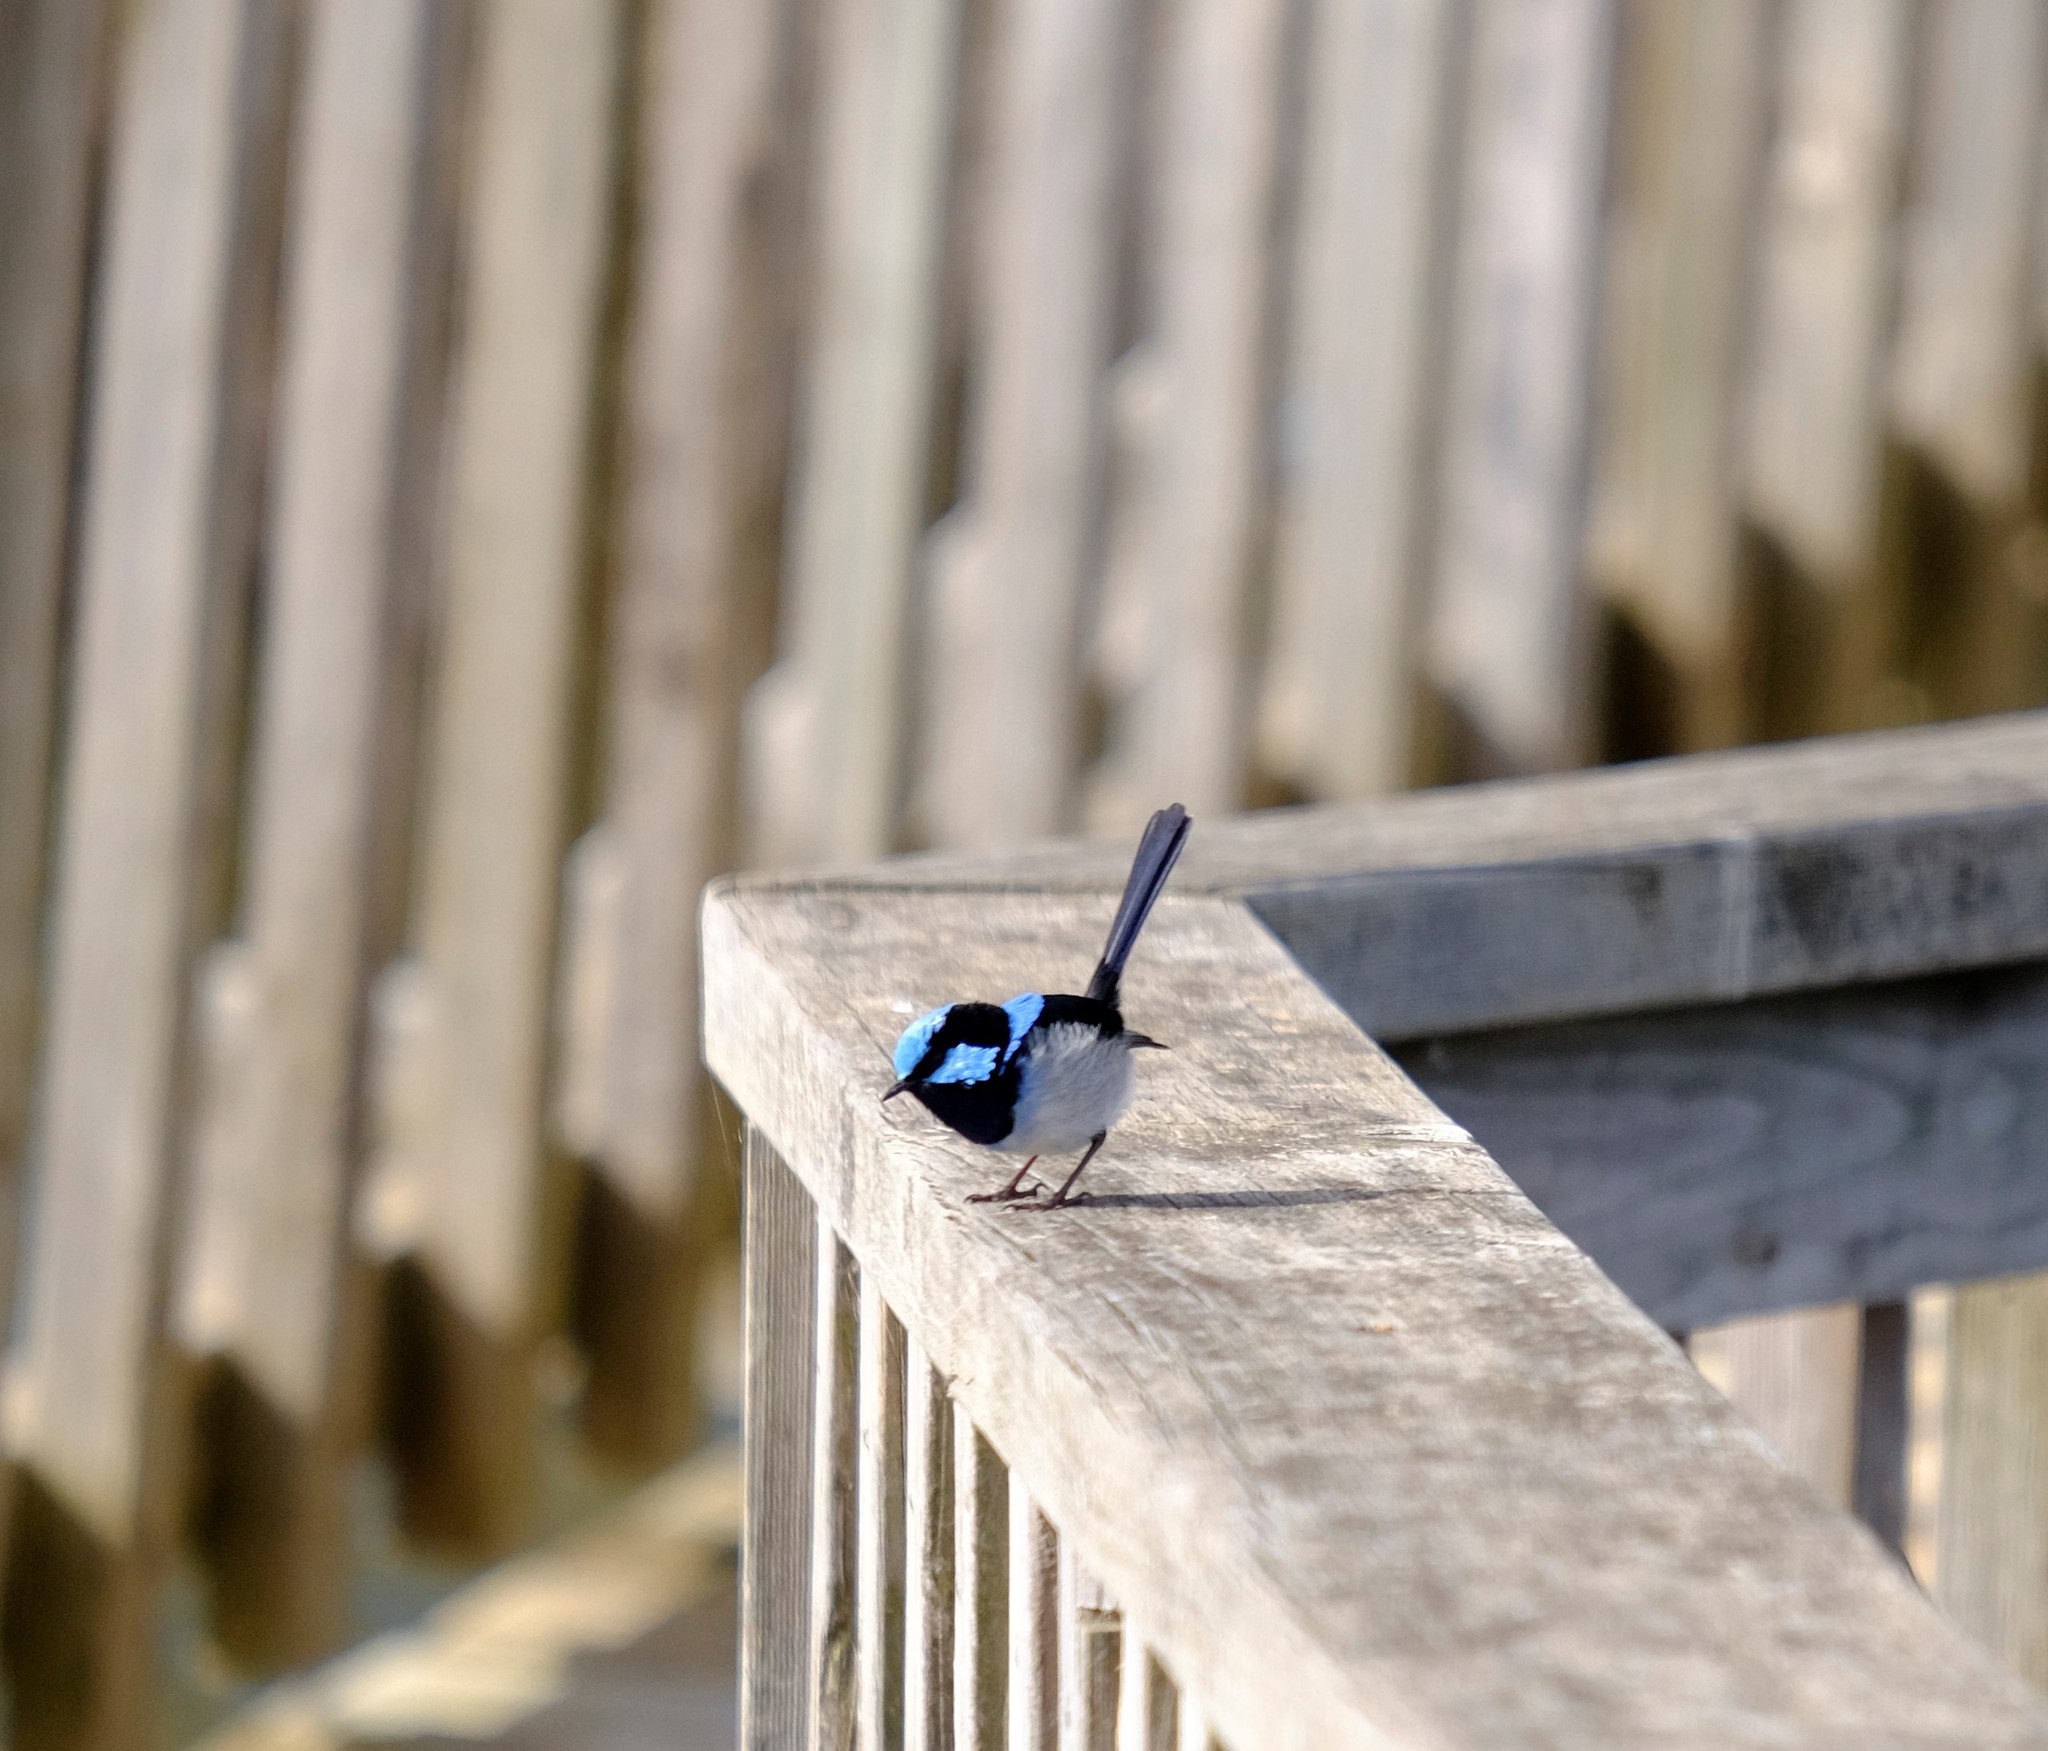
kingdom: Animalia
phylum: Chordata
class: Aves
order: Passeriformes
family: Maluridae
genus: Malurus
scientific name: Malurus cyaneus
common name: Superb fairywren
